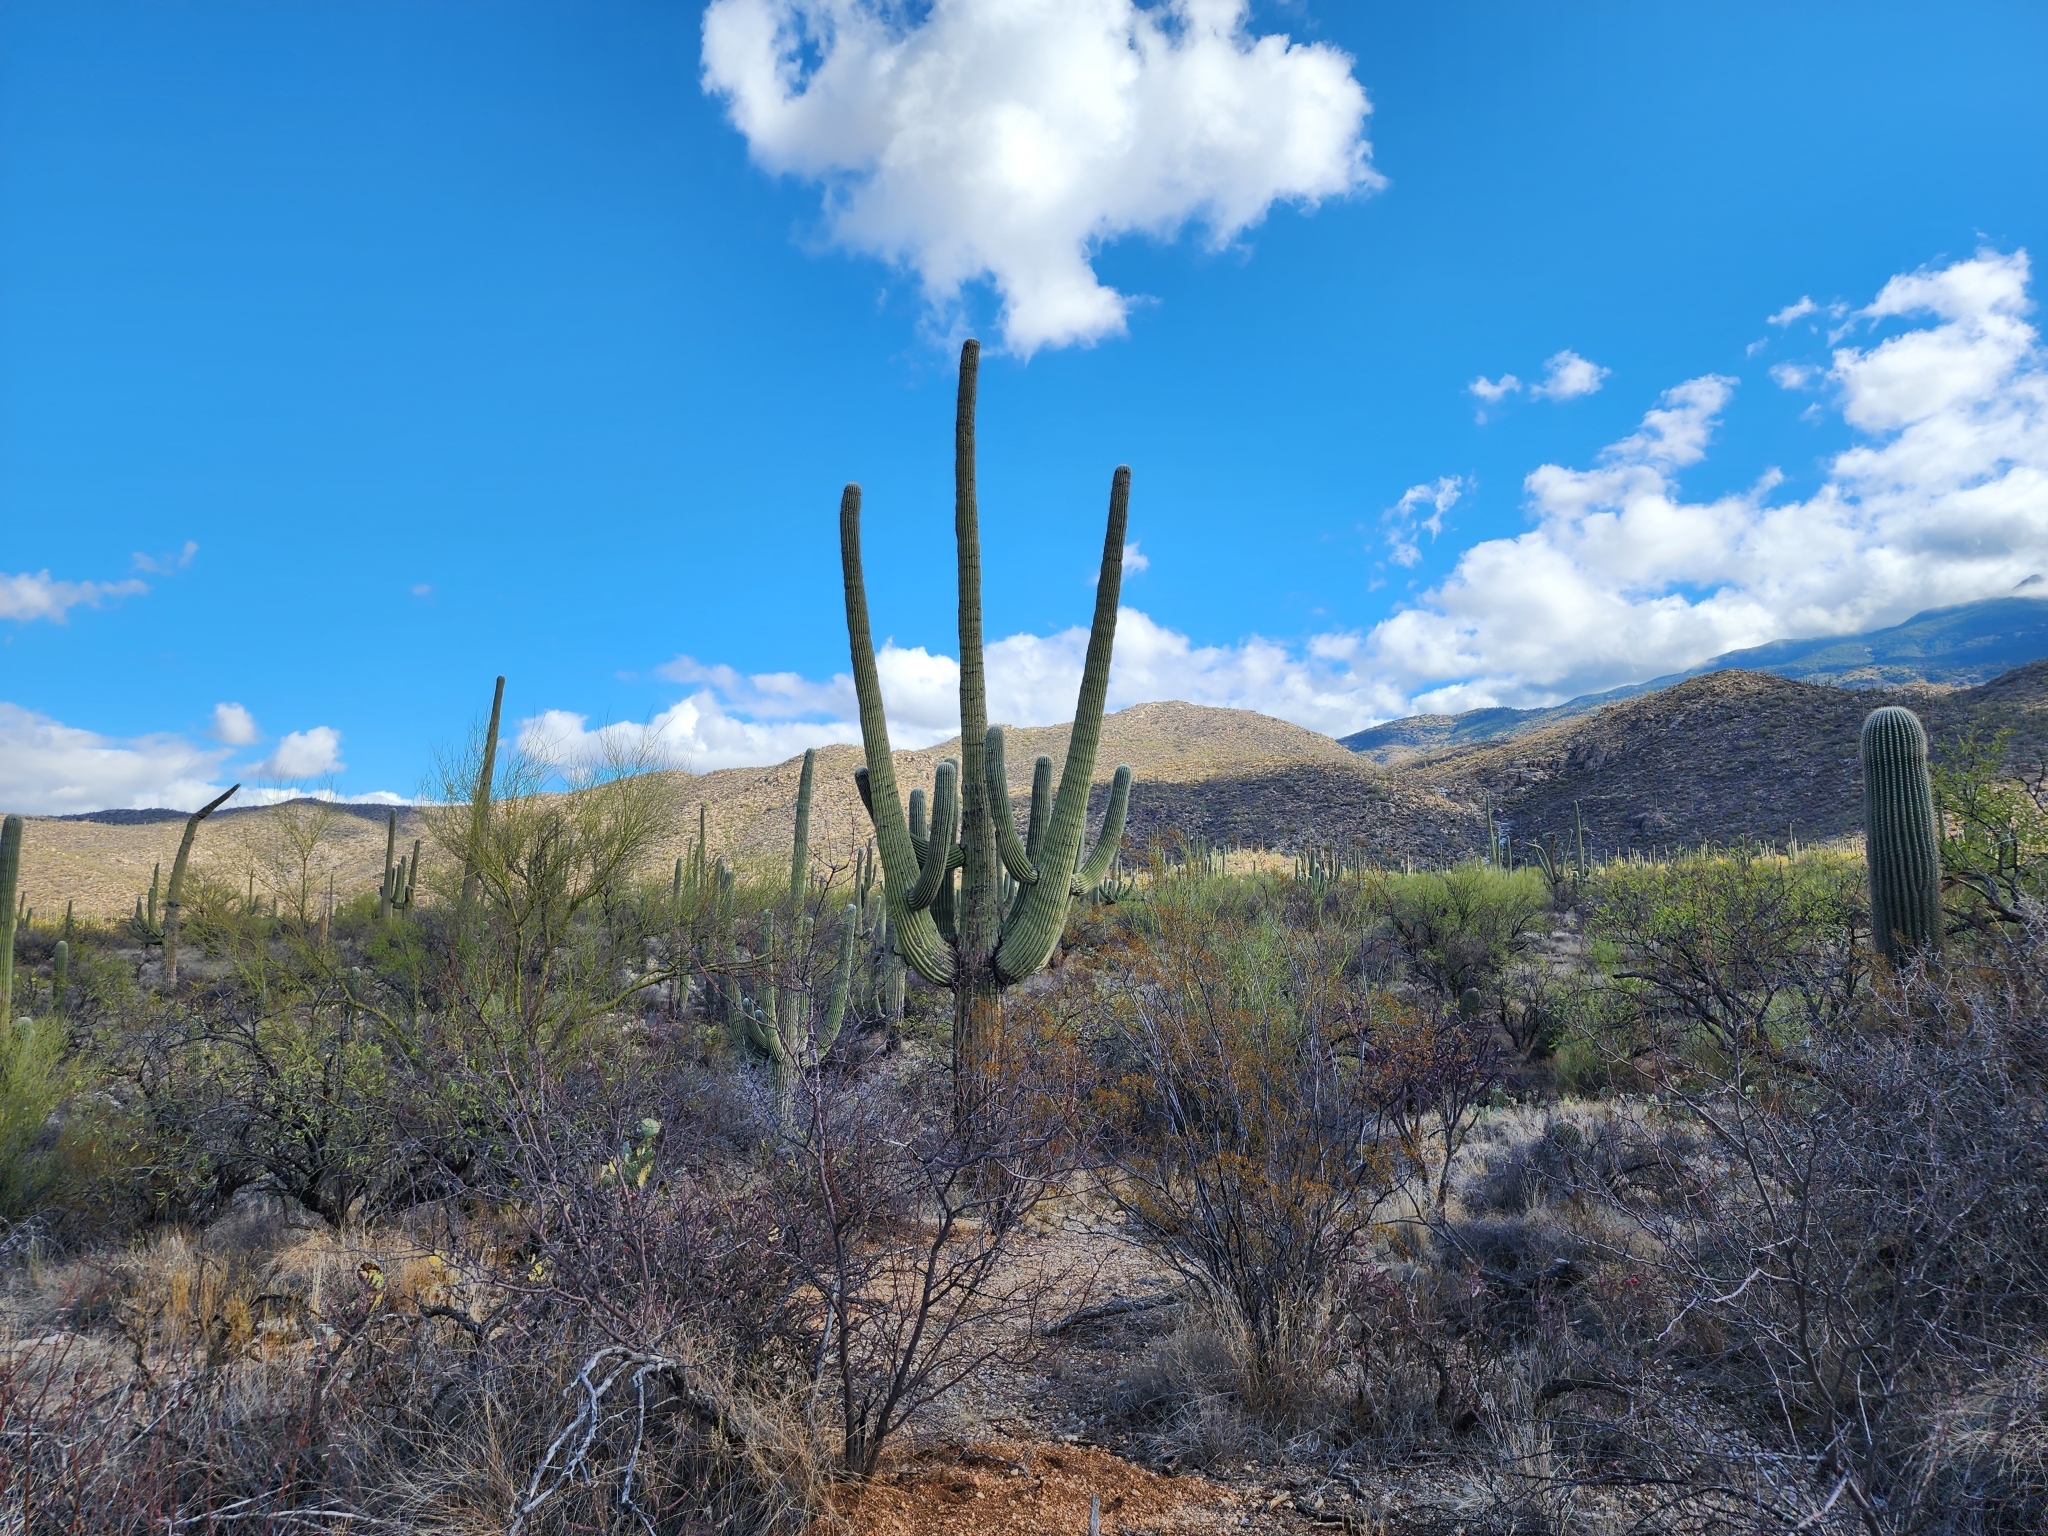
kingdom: Plantae
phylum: Tracheophyta
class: Magnoliopsida
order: Caryophyllales
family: Cactaceae
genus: Carnegiea
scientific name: Carnegiea gigantea
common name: Saguaro
